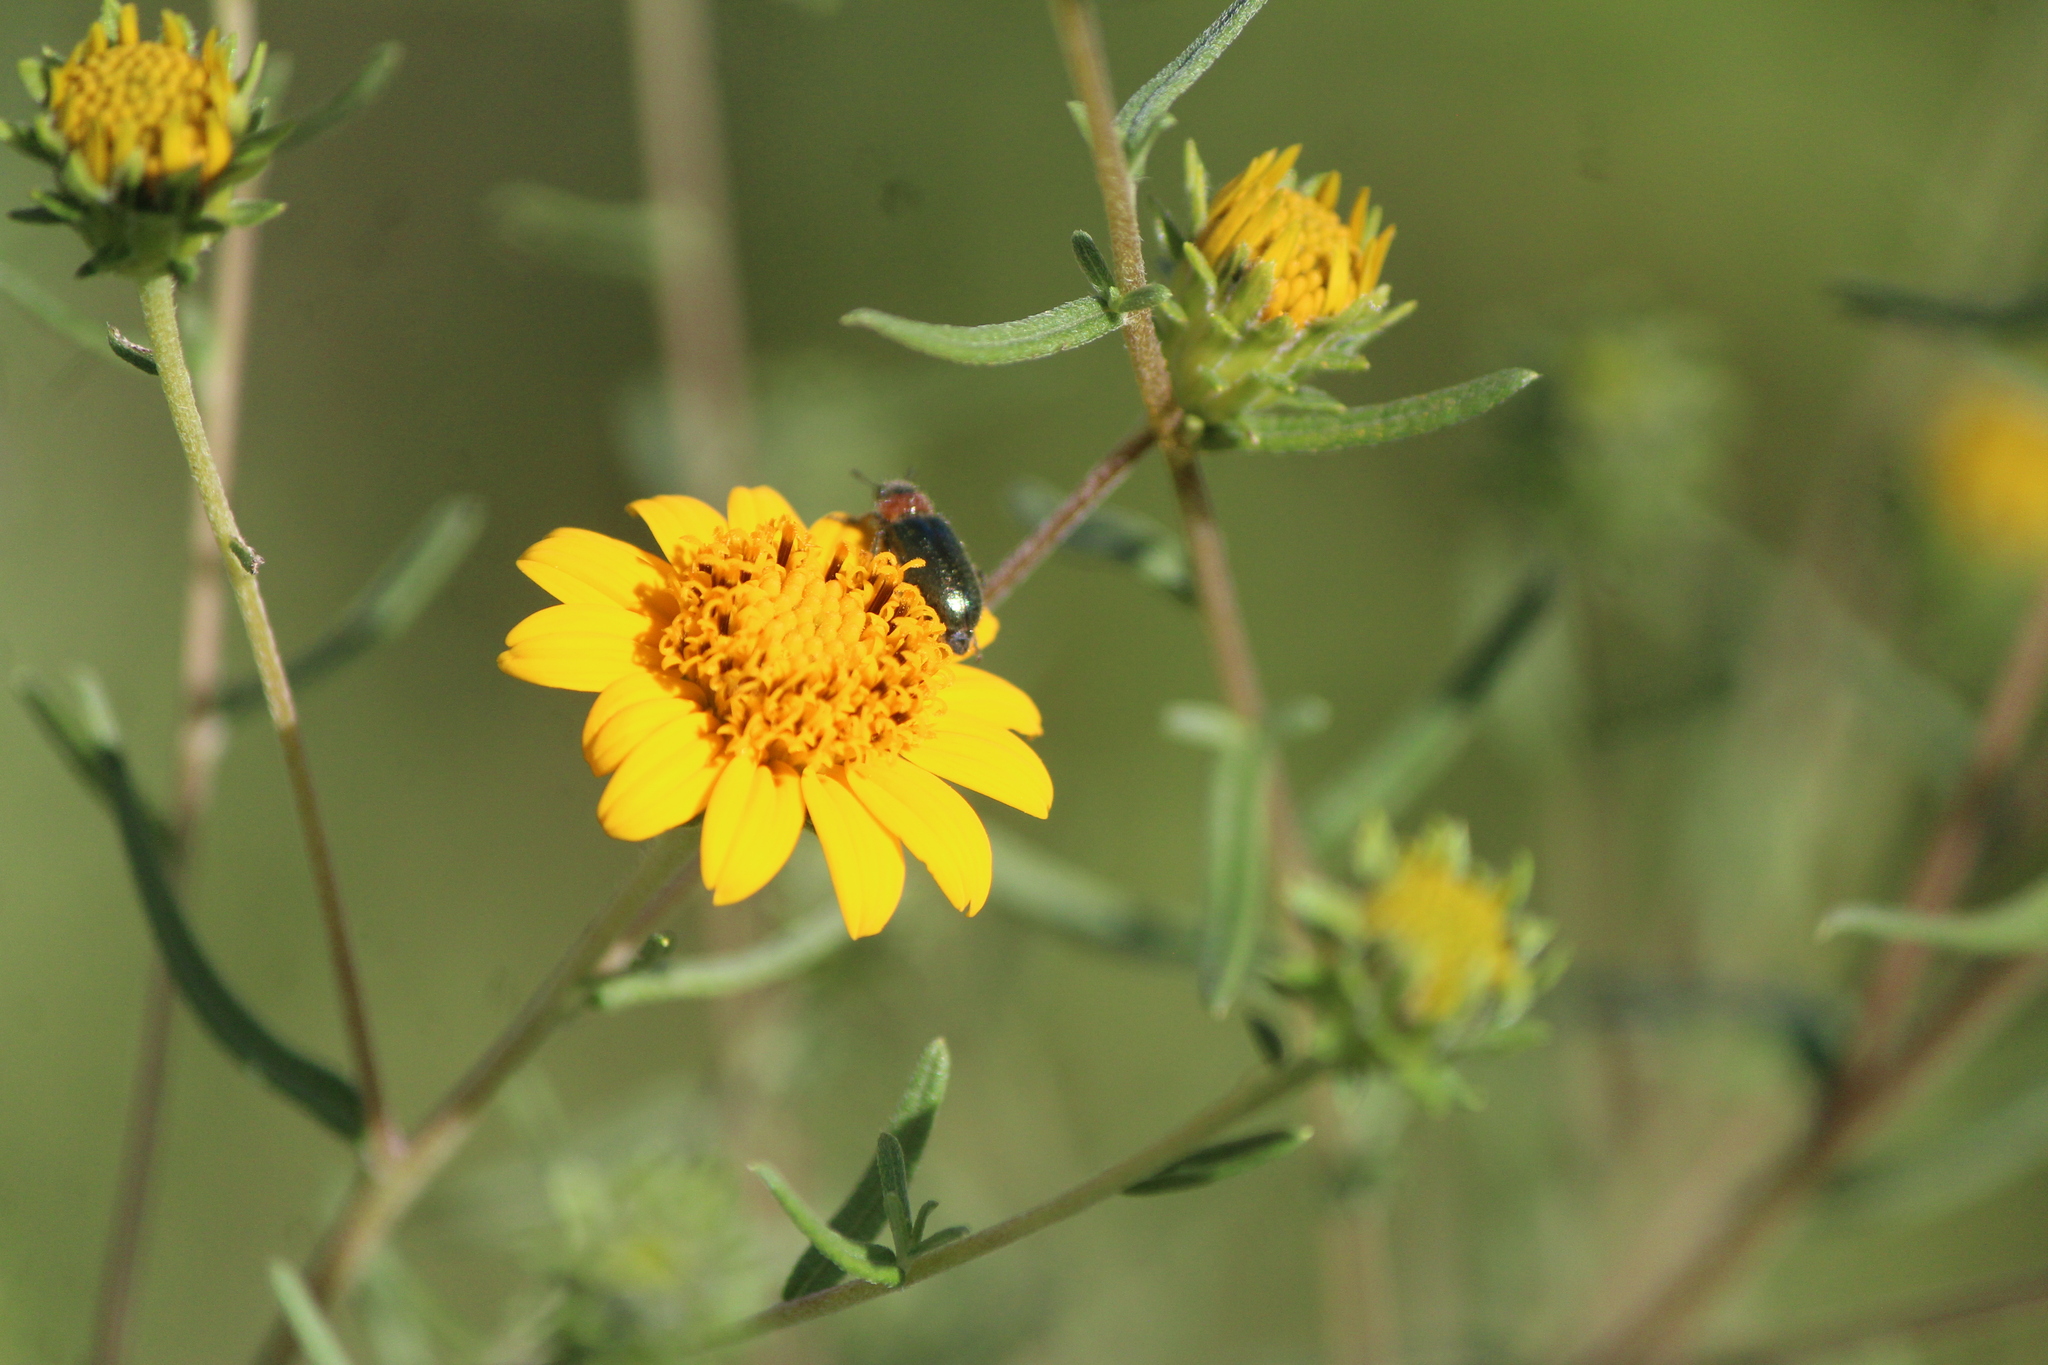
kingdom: Animalia
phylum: Arthropoda
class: Insecta
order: Coleoptera
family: Cleridae
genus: Dologenitus
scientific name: Dologenitus
